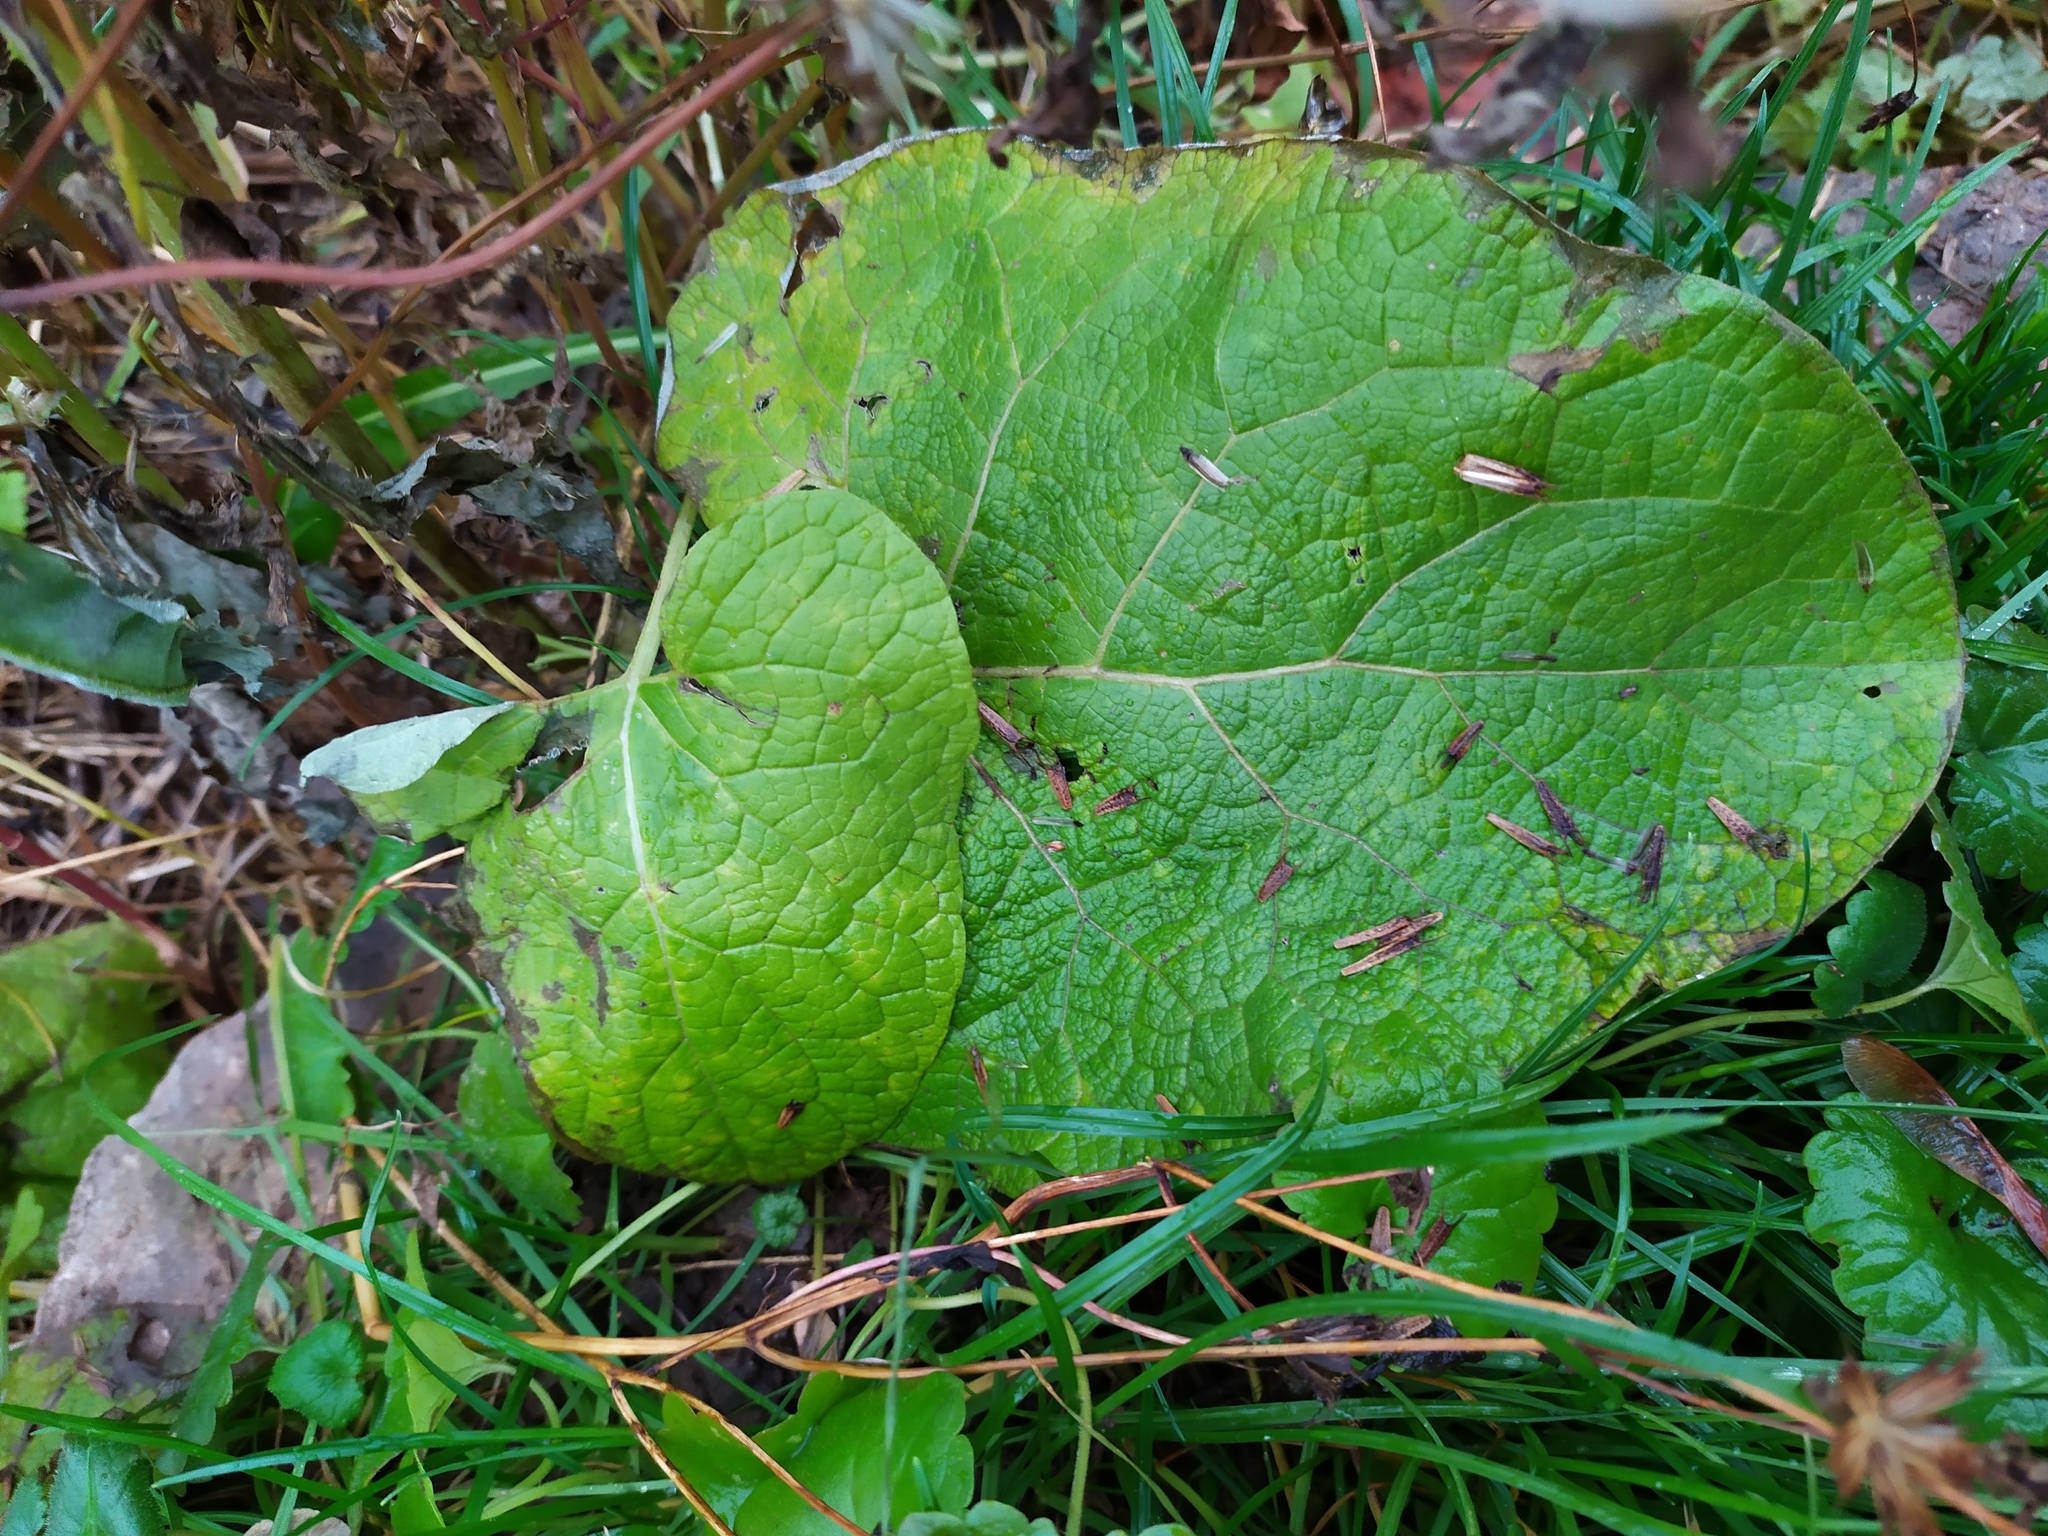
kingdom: Plantae
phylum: Tracheophyta
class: Magnoliopsida
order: Asterales
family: Asteraceae
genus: Arctium
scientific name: Arctium
